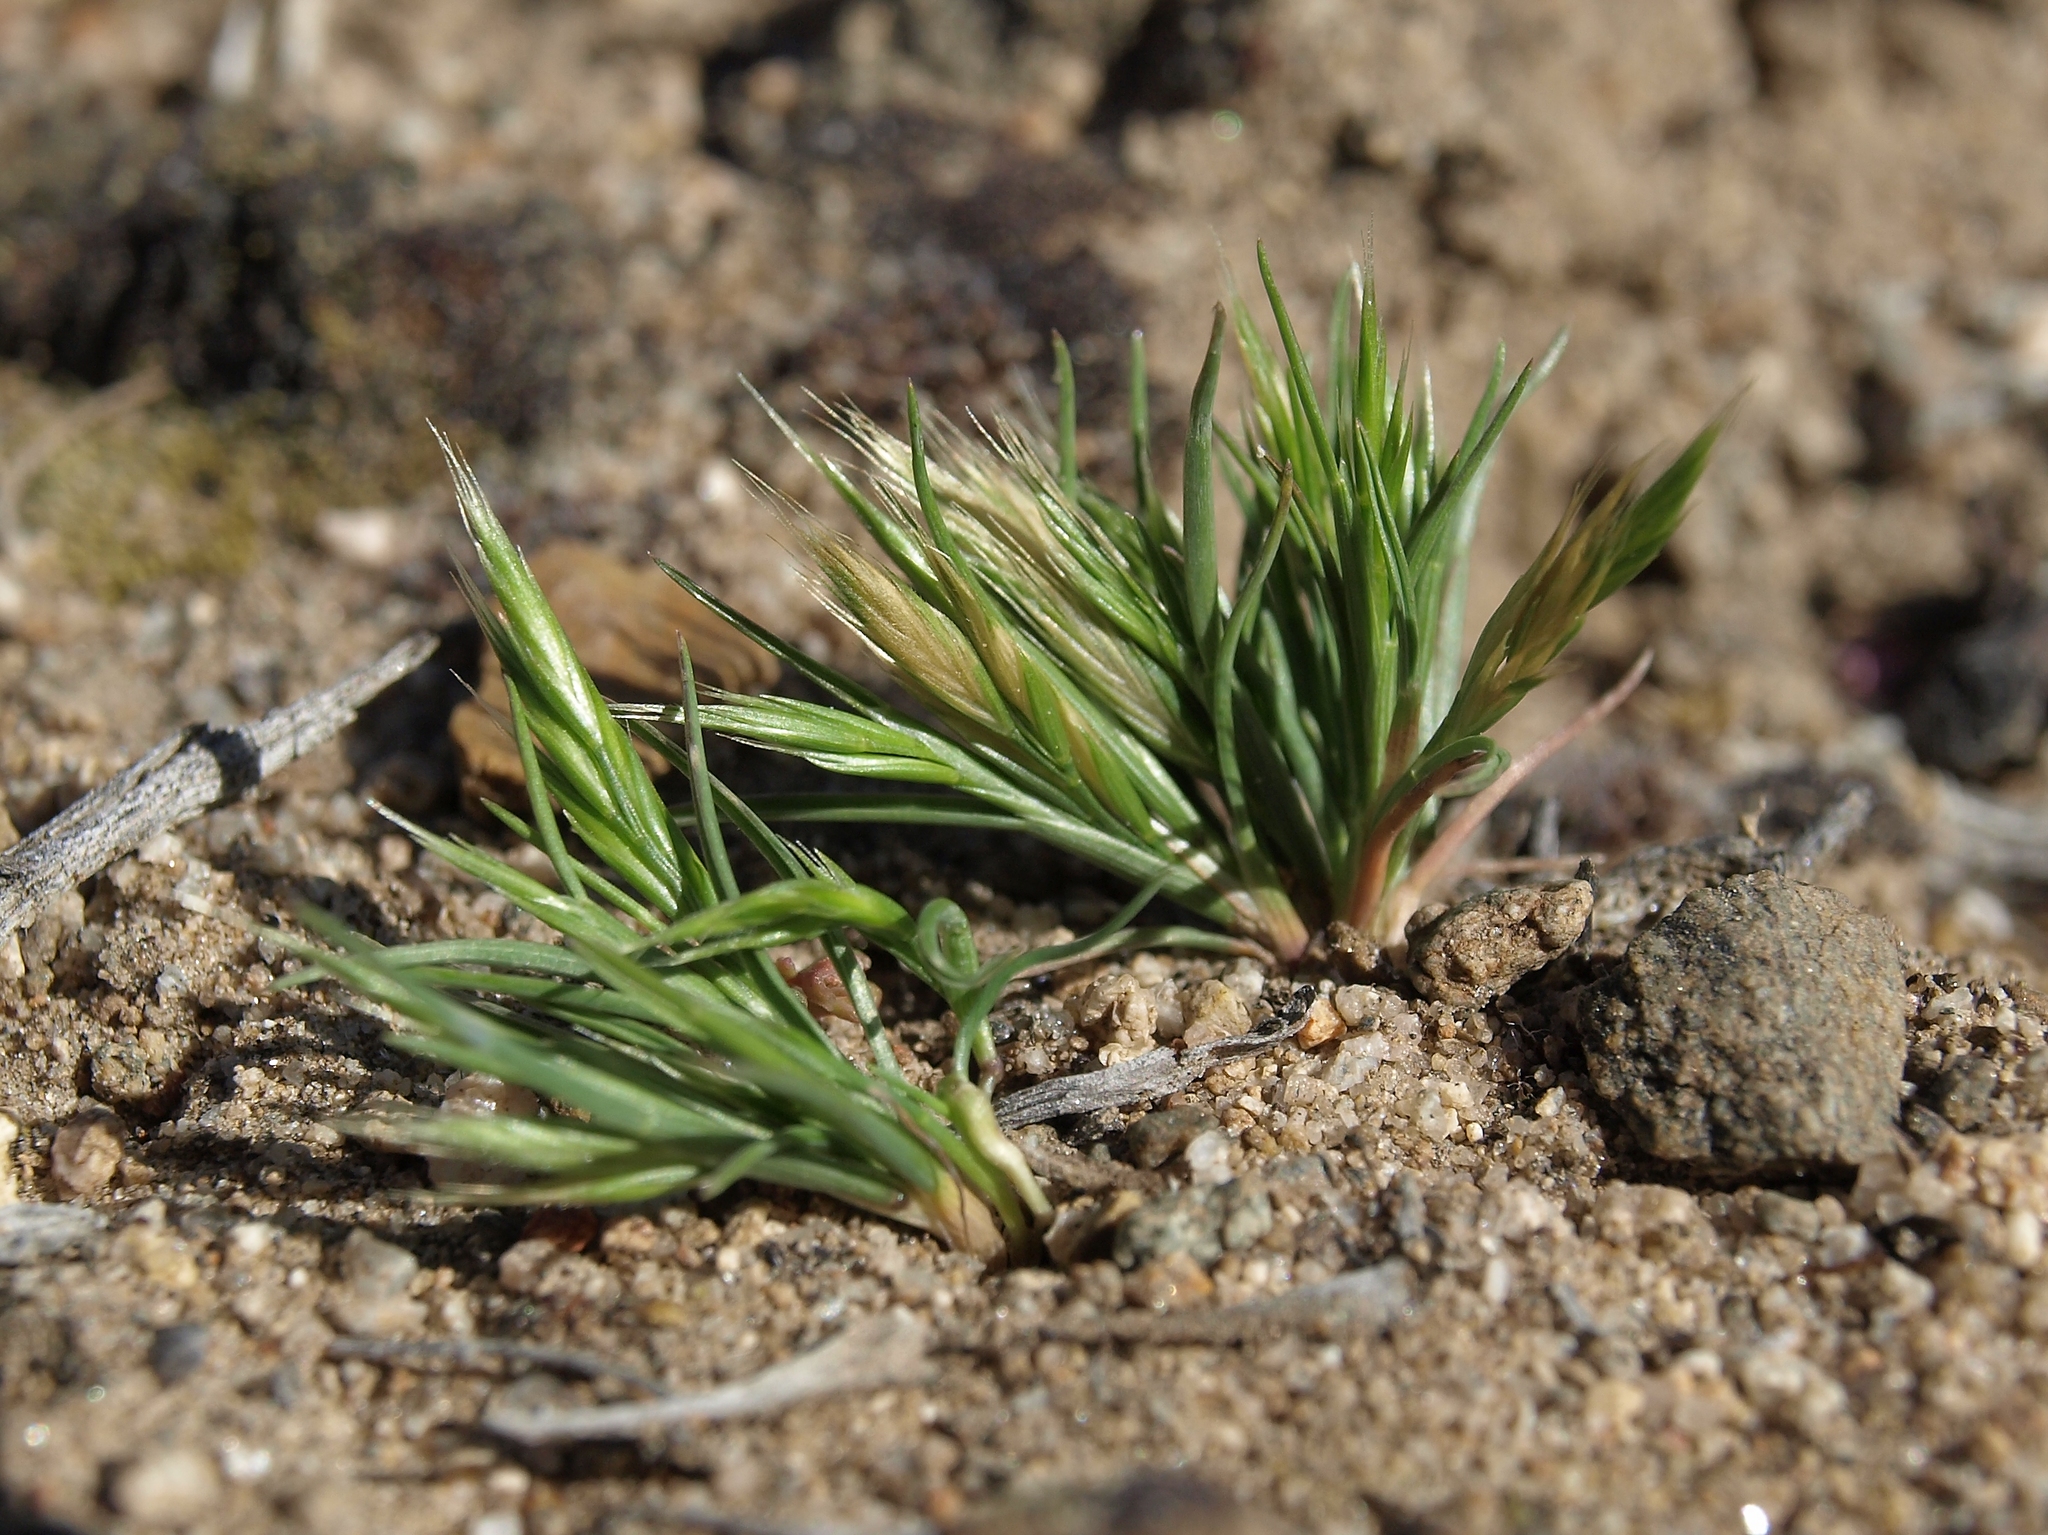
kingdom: Plantae
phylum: Tracheophyta
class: Liliopsida
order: Poales
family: Poaceae
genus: Festuca
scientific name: Festuca octoflora
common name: Sixweeks grass
